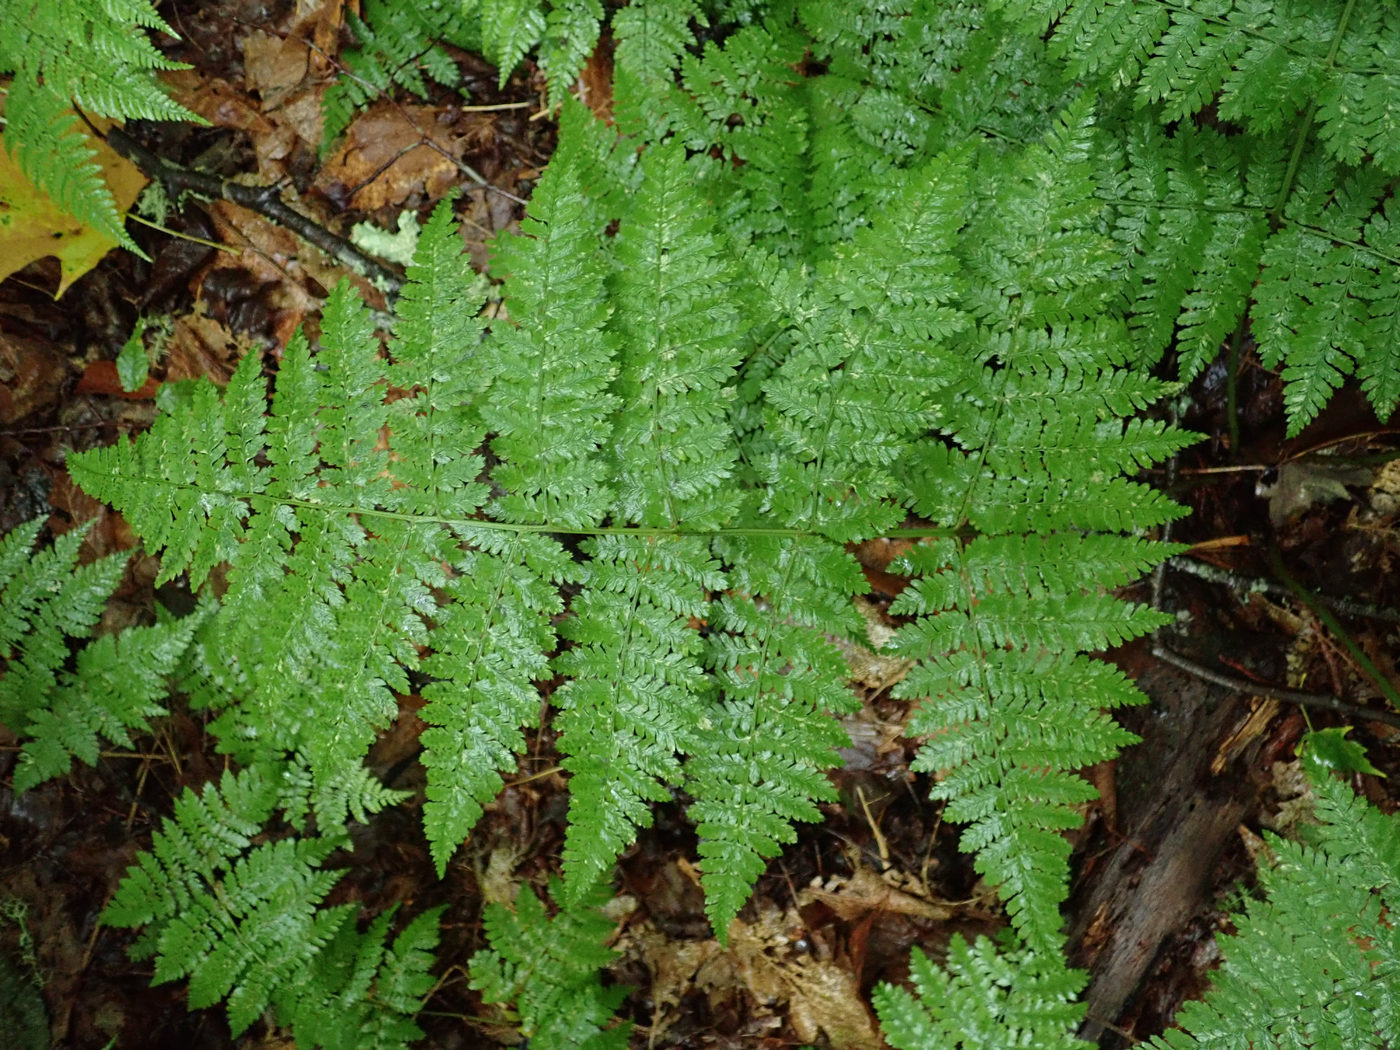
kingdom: Plantae
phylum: Tracheophyta
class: Polypodiopsida
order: Polypodiales
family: Dryopteridaceae
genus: Dryopteris
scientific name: Dryopteris campyloptera
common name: Mountain wood fern
